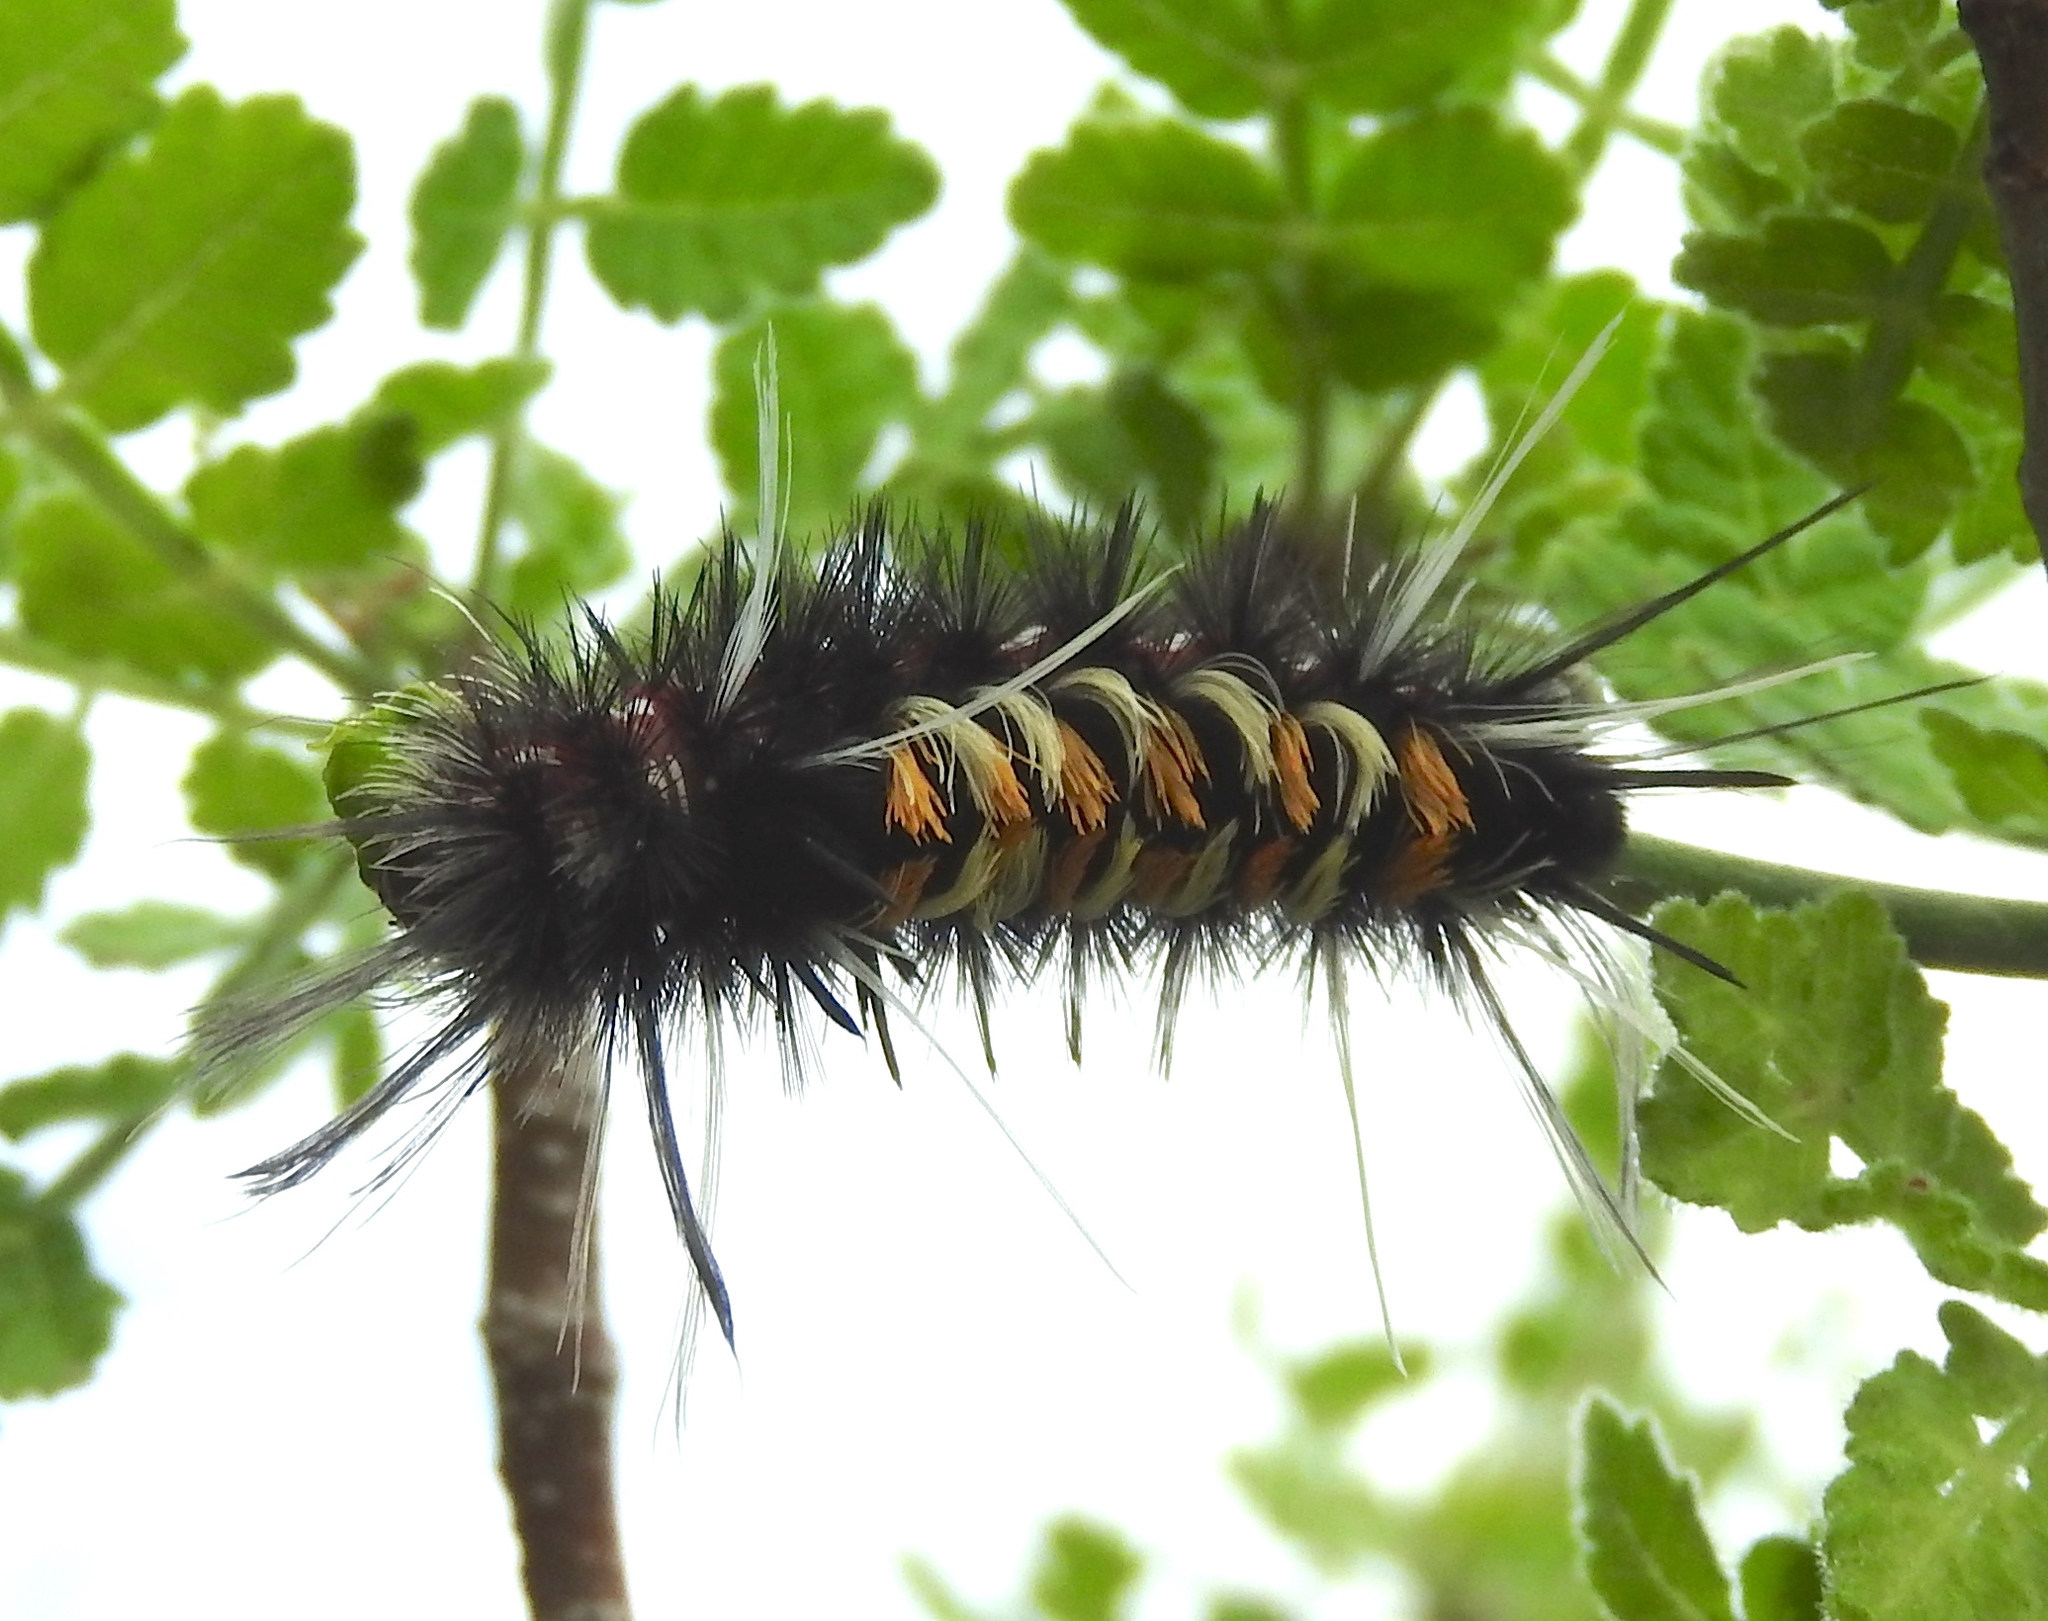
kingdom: Animalia
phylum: Arthropoda
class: Insecta
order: Lepidoptera
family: Erebidae
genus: Euchaetes
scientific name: Euchaetes antica
